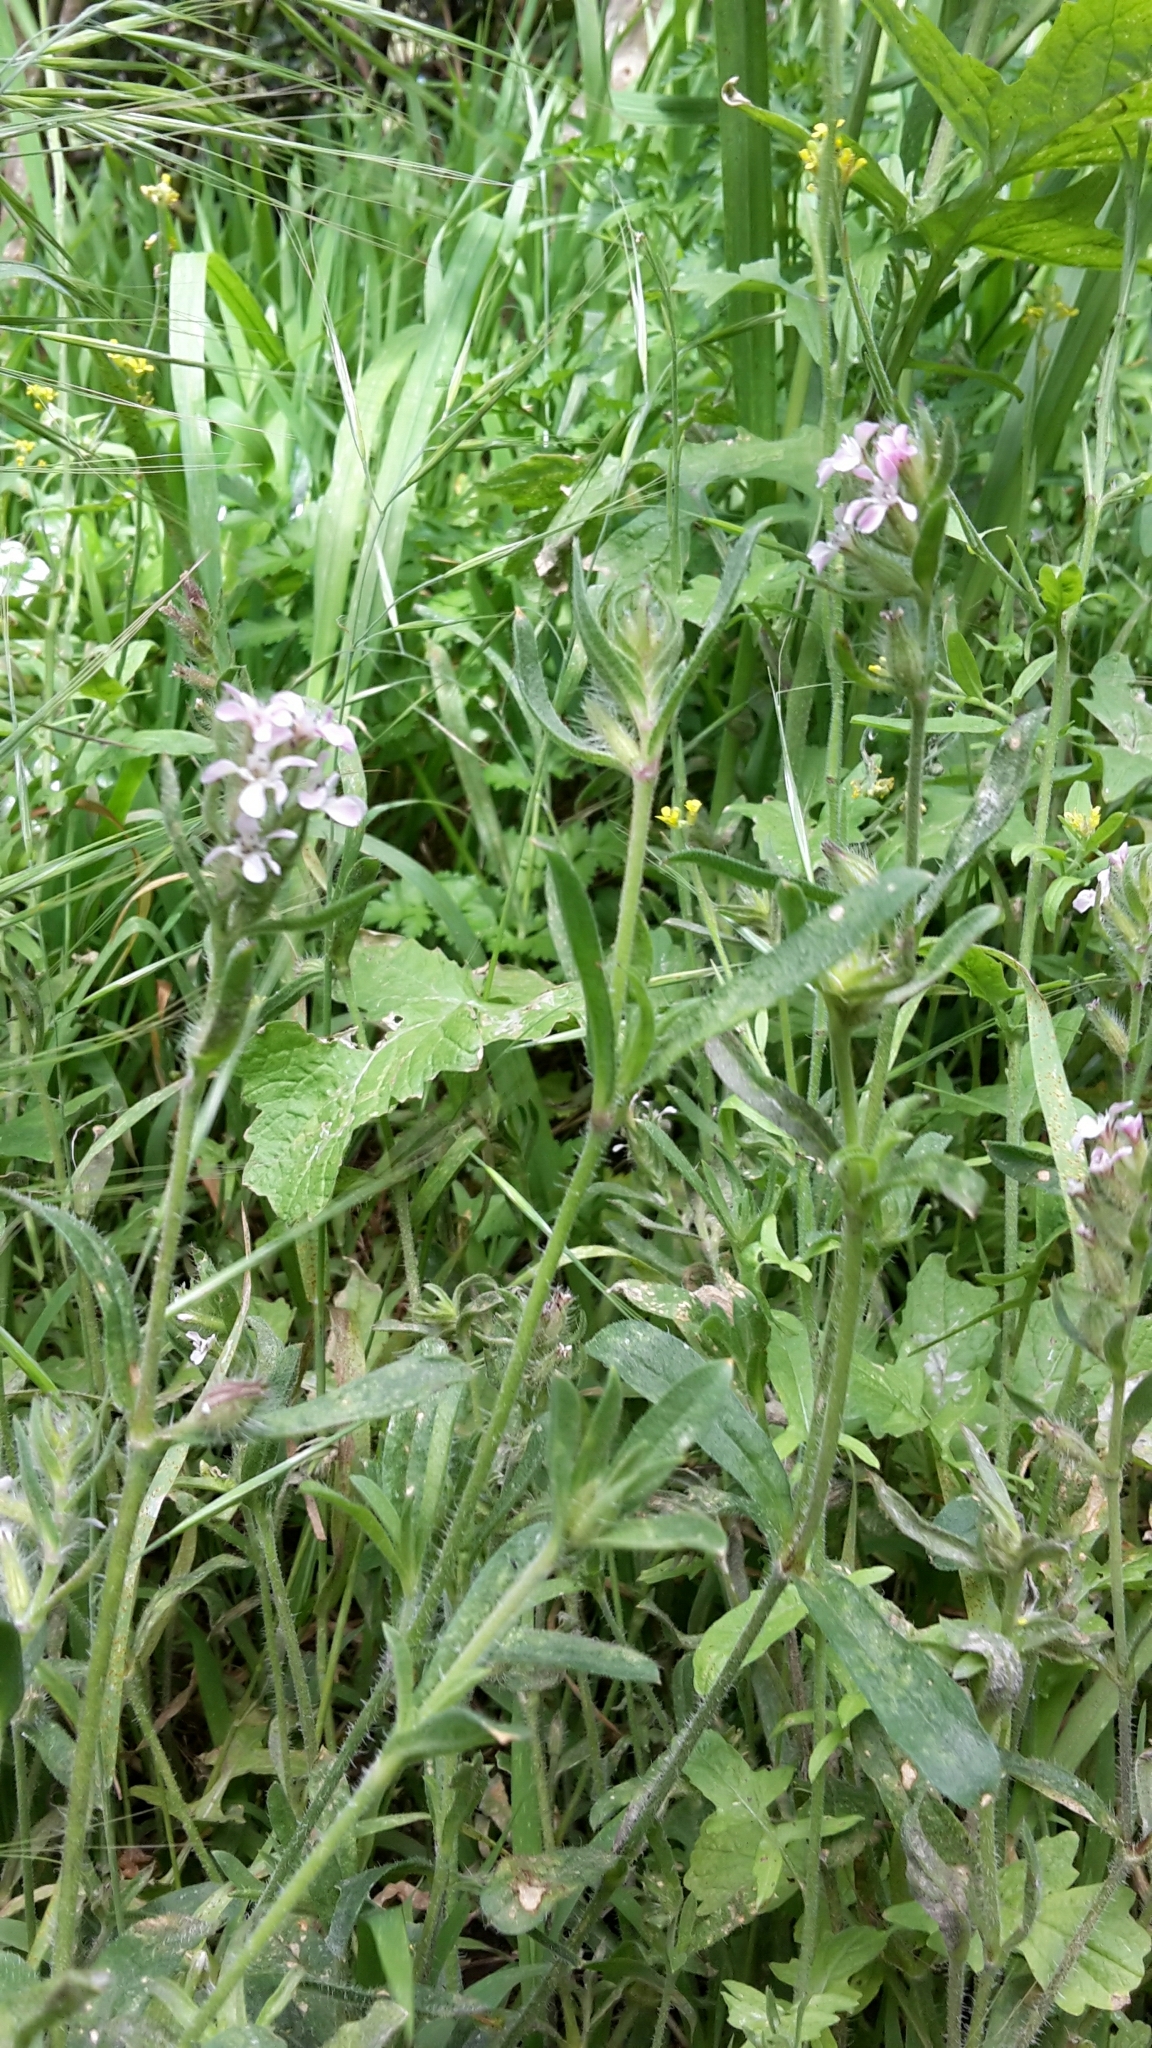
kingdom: Plantae
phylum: Tracheophyta
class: Magnoliopsida
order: Caryophyllales
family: Caryophyllaceae
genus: Silene
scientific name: Silene gallica
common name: Small-flowered catchfly
